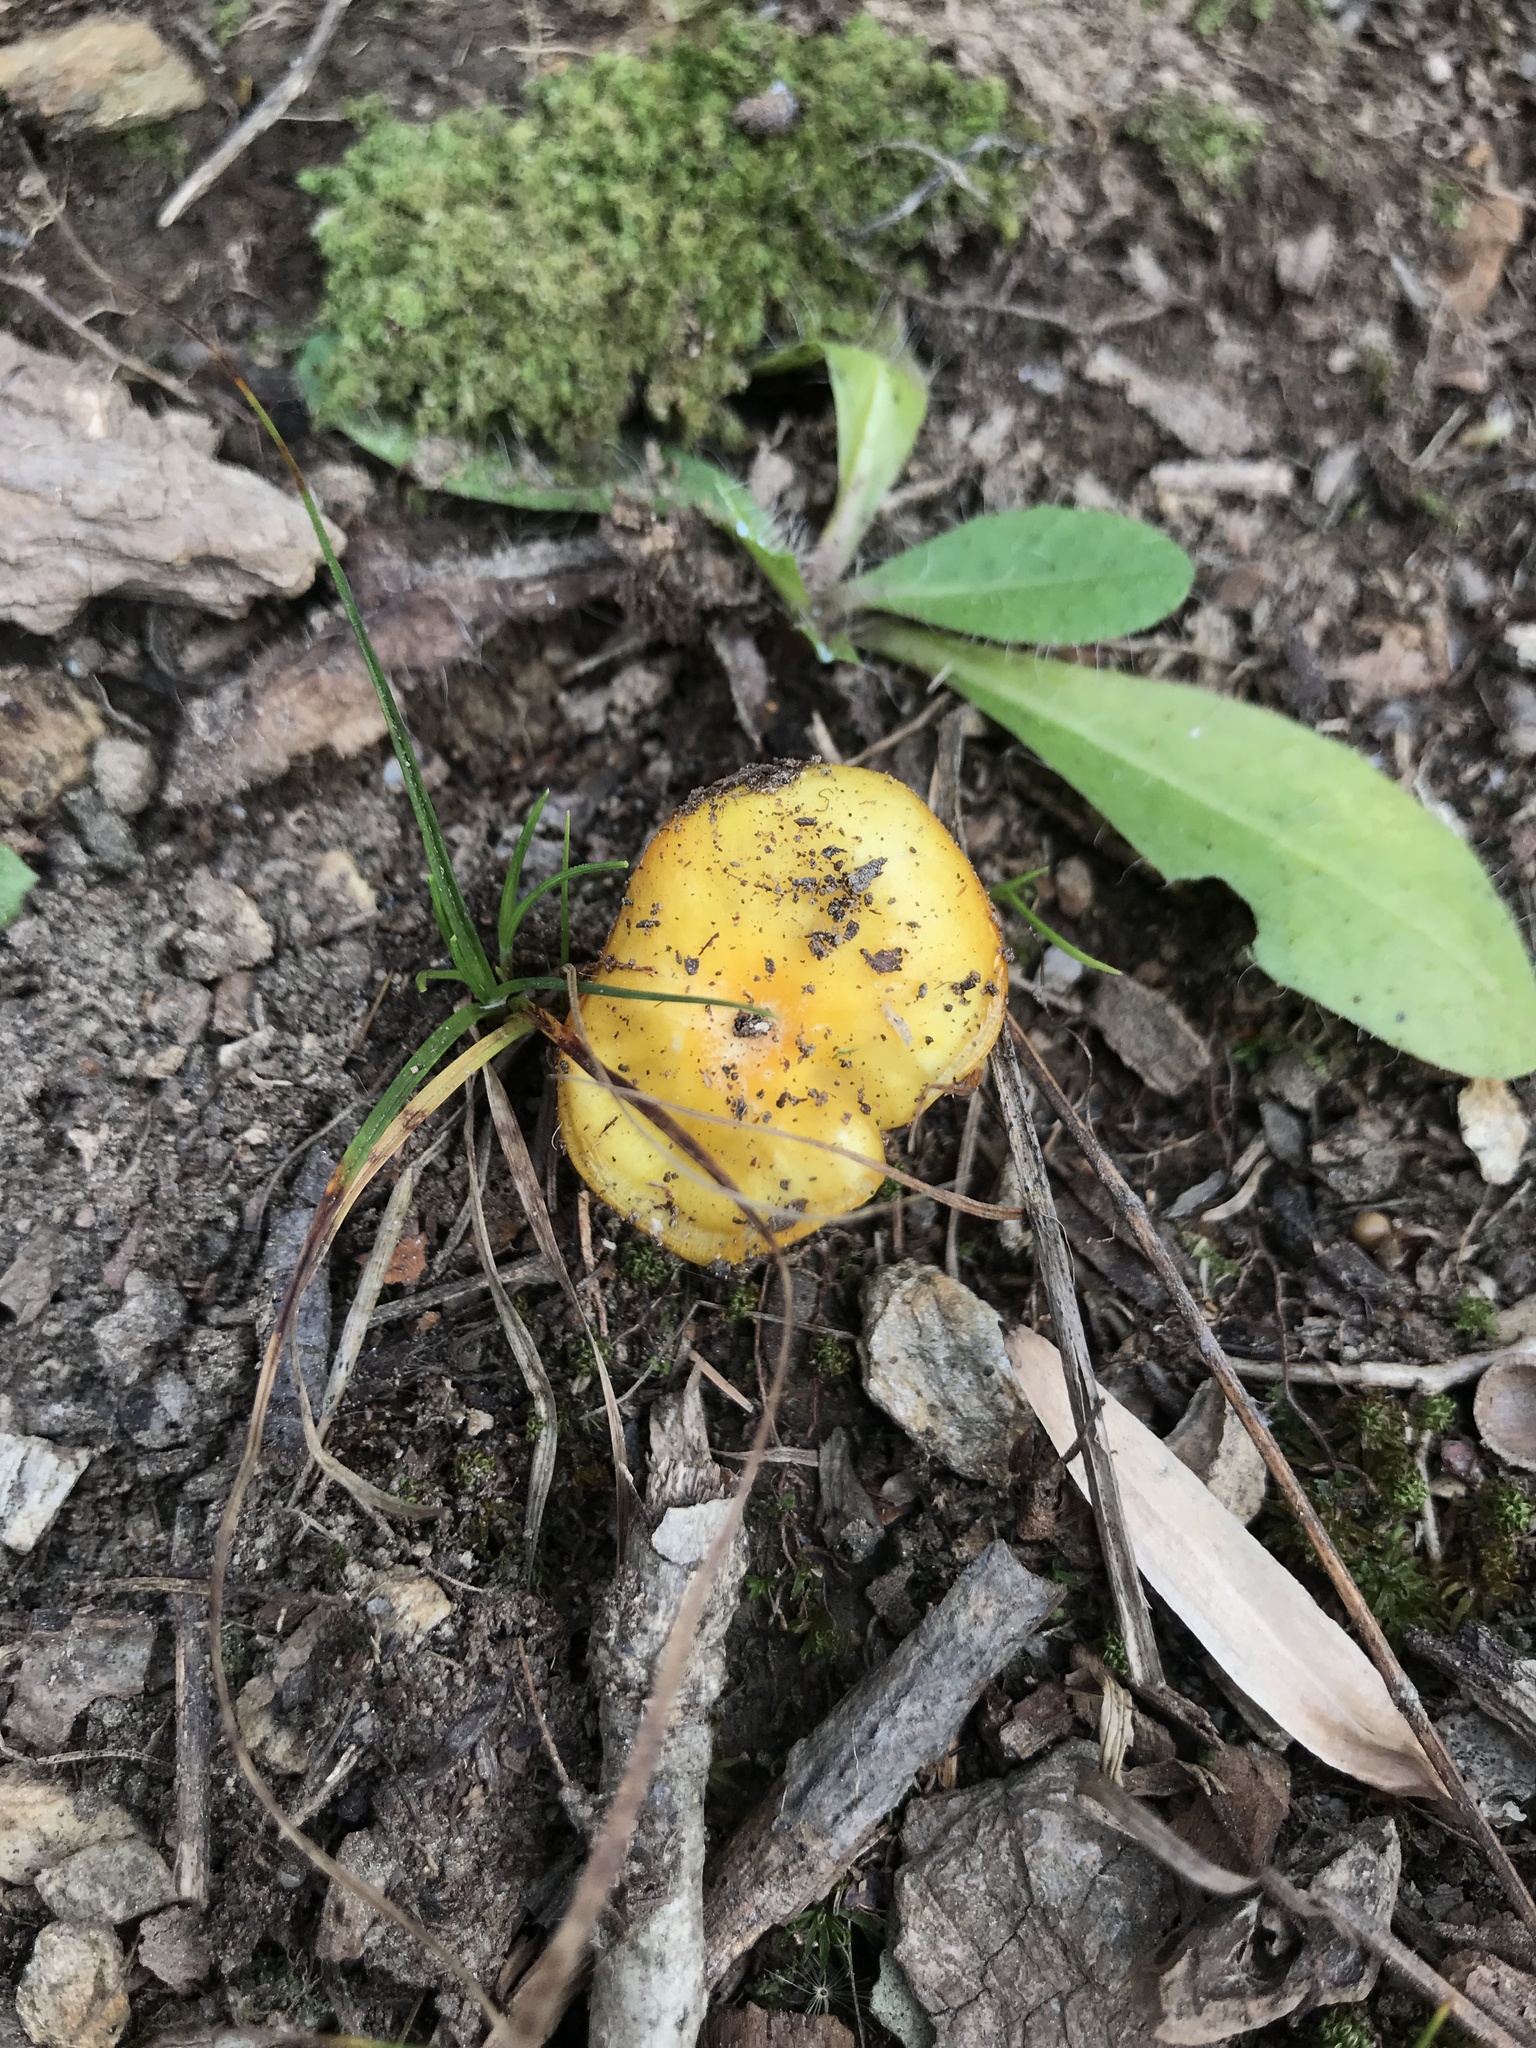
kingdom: Fungi
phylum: Basidiomycota
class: Agaricomycetes
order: Agaricales
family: Hygrophoraceae
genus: Hygrocybe
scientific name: Hygrocybe flavescens
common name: Golden waxy cap
